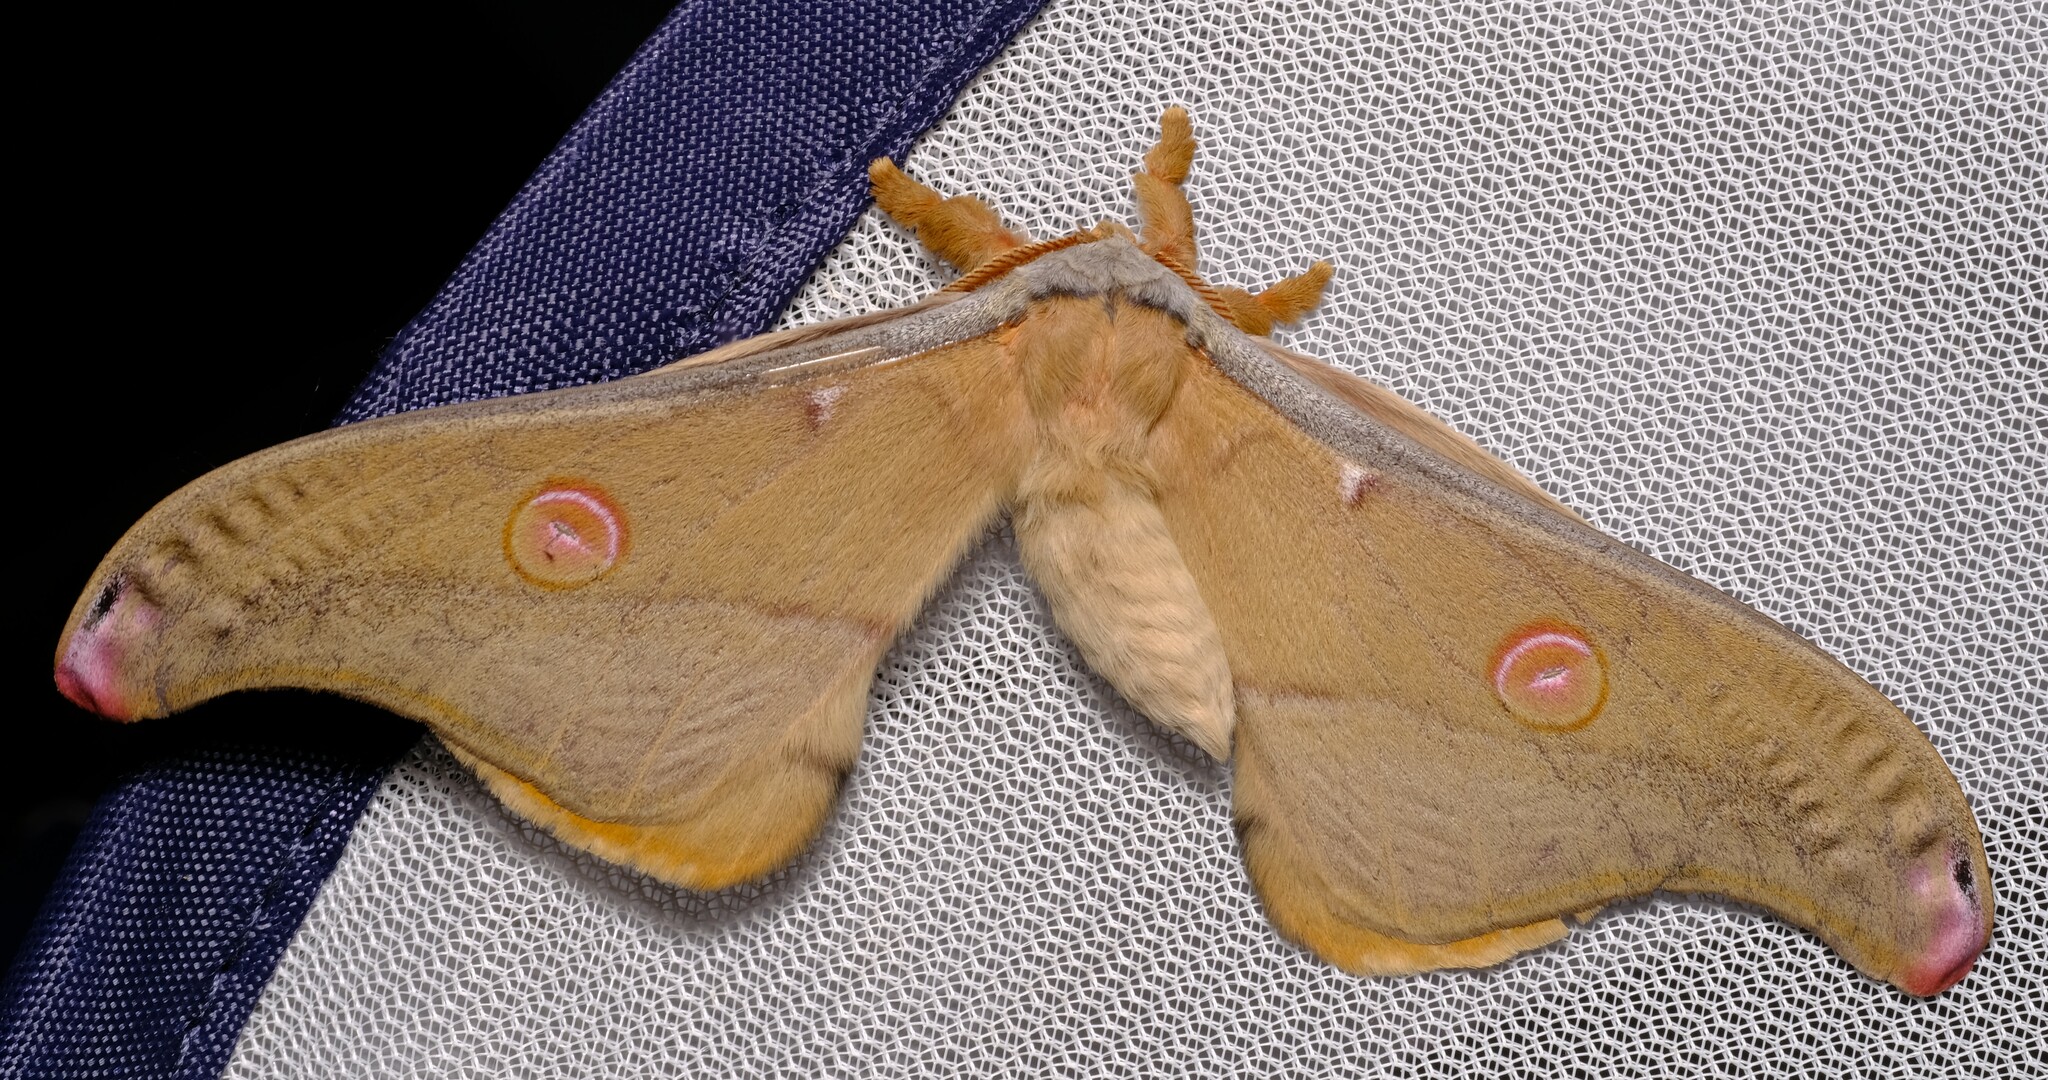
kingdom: Animalia
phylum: Arthropoda
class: Insecta
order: Lepidoptera
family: Saturniidae
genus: Opodiphthera
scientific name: Opodiphthera
